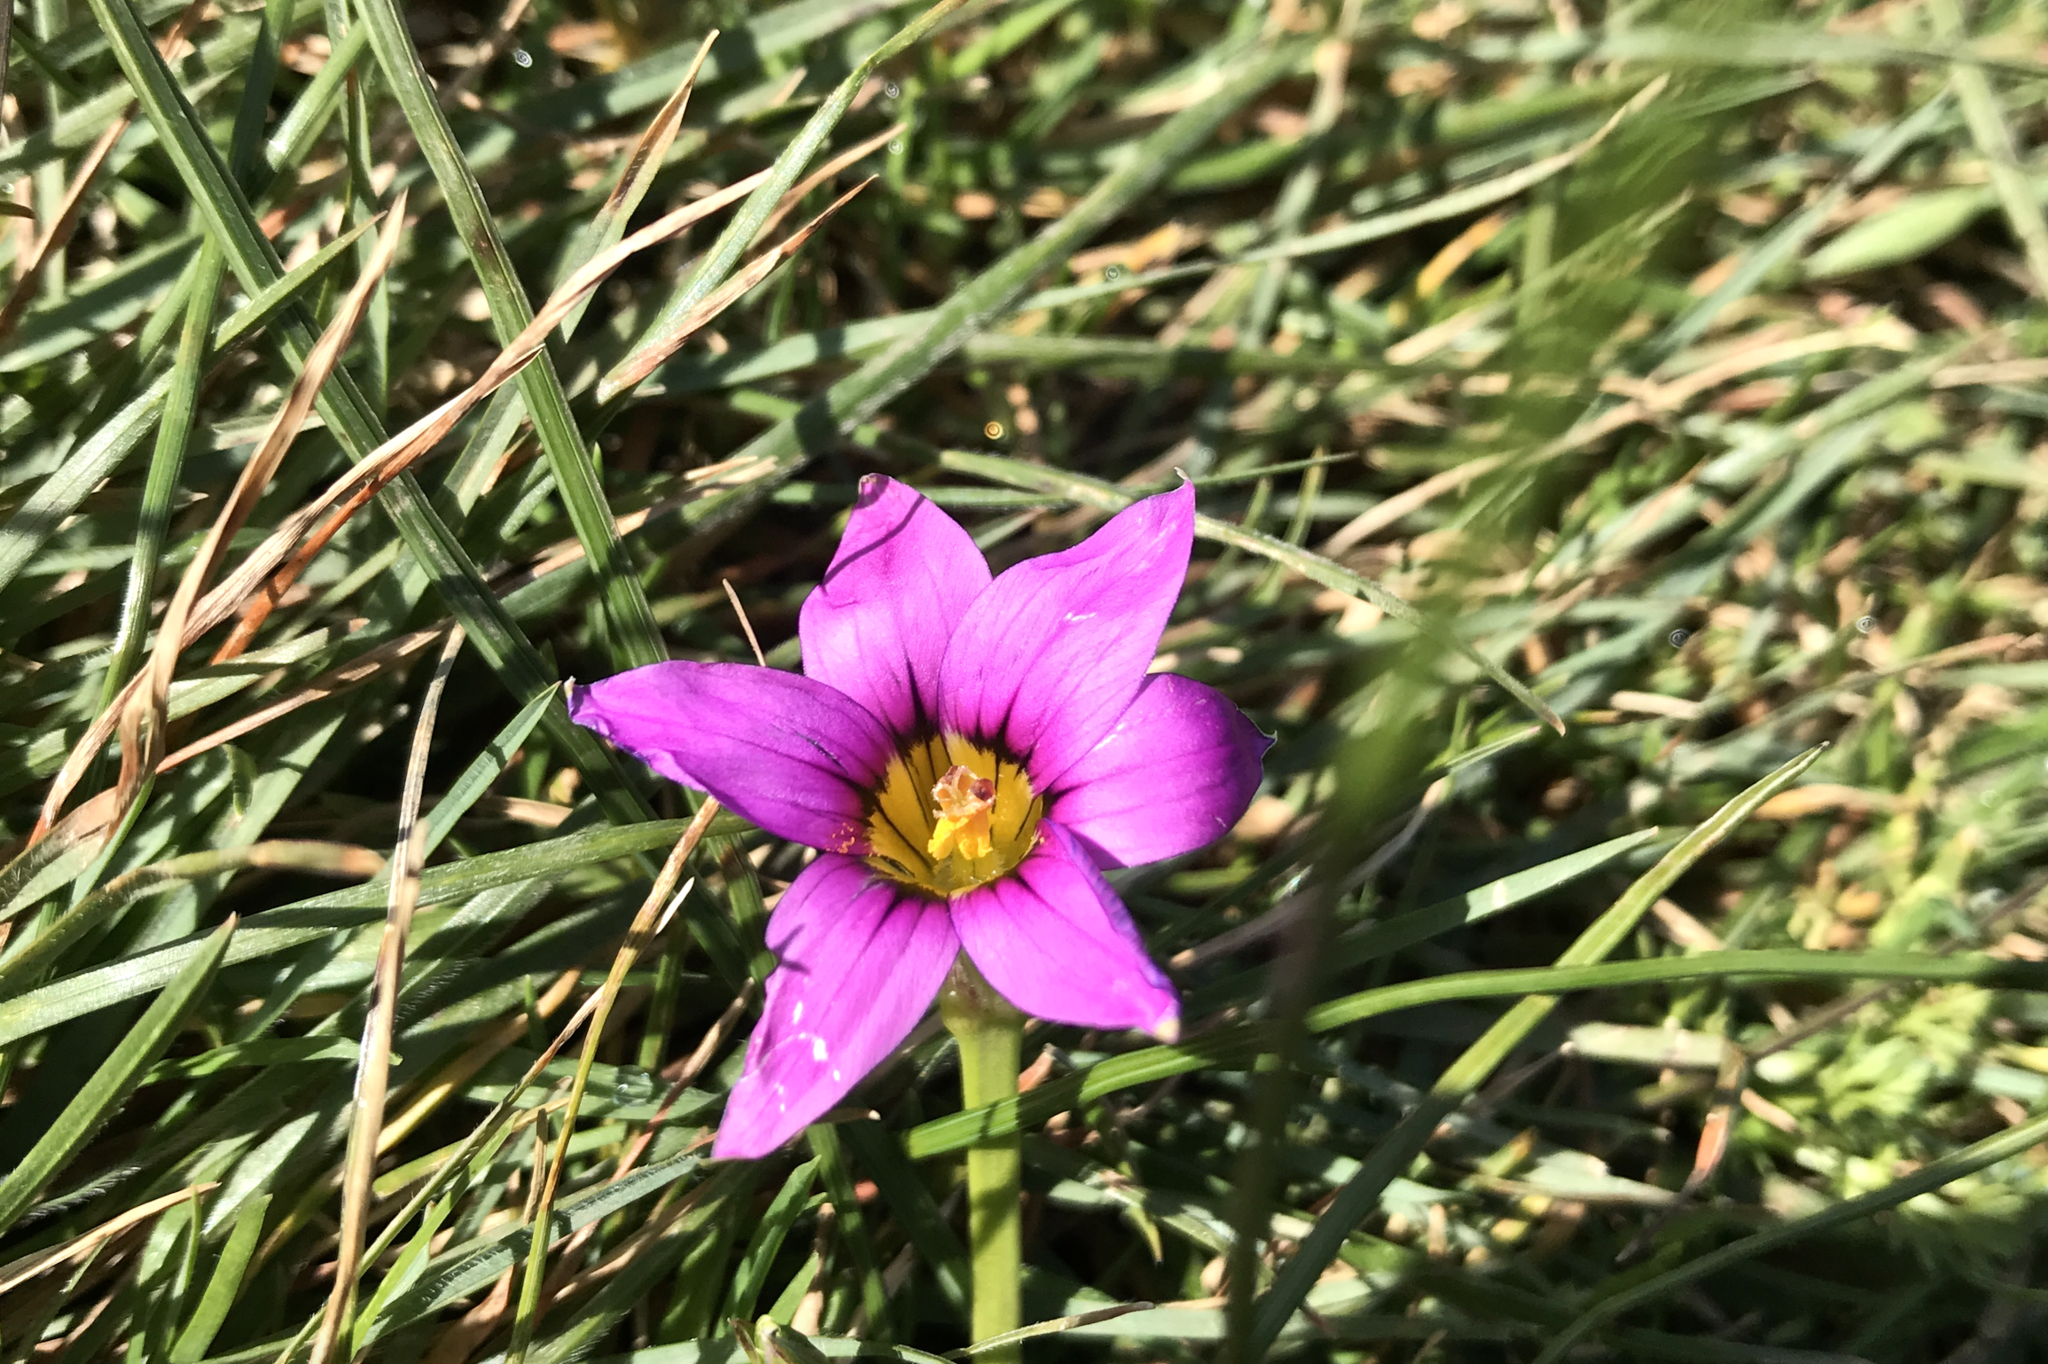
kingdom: Plantae
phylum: Tracheophyta
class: Liliopsida
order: Asparagales
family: Iridaceae
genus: Romulea
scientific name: Romulea rosea
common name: Oniongrass
